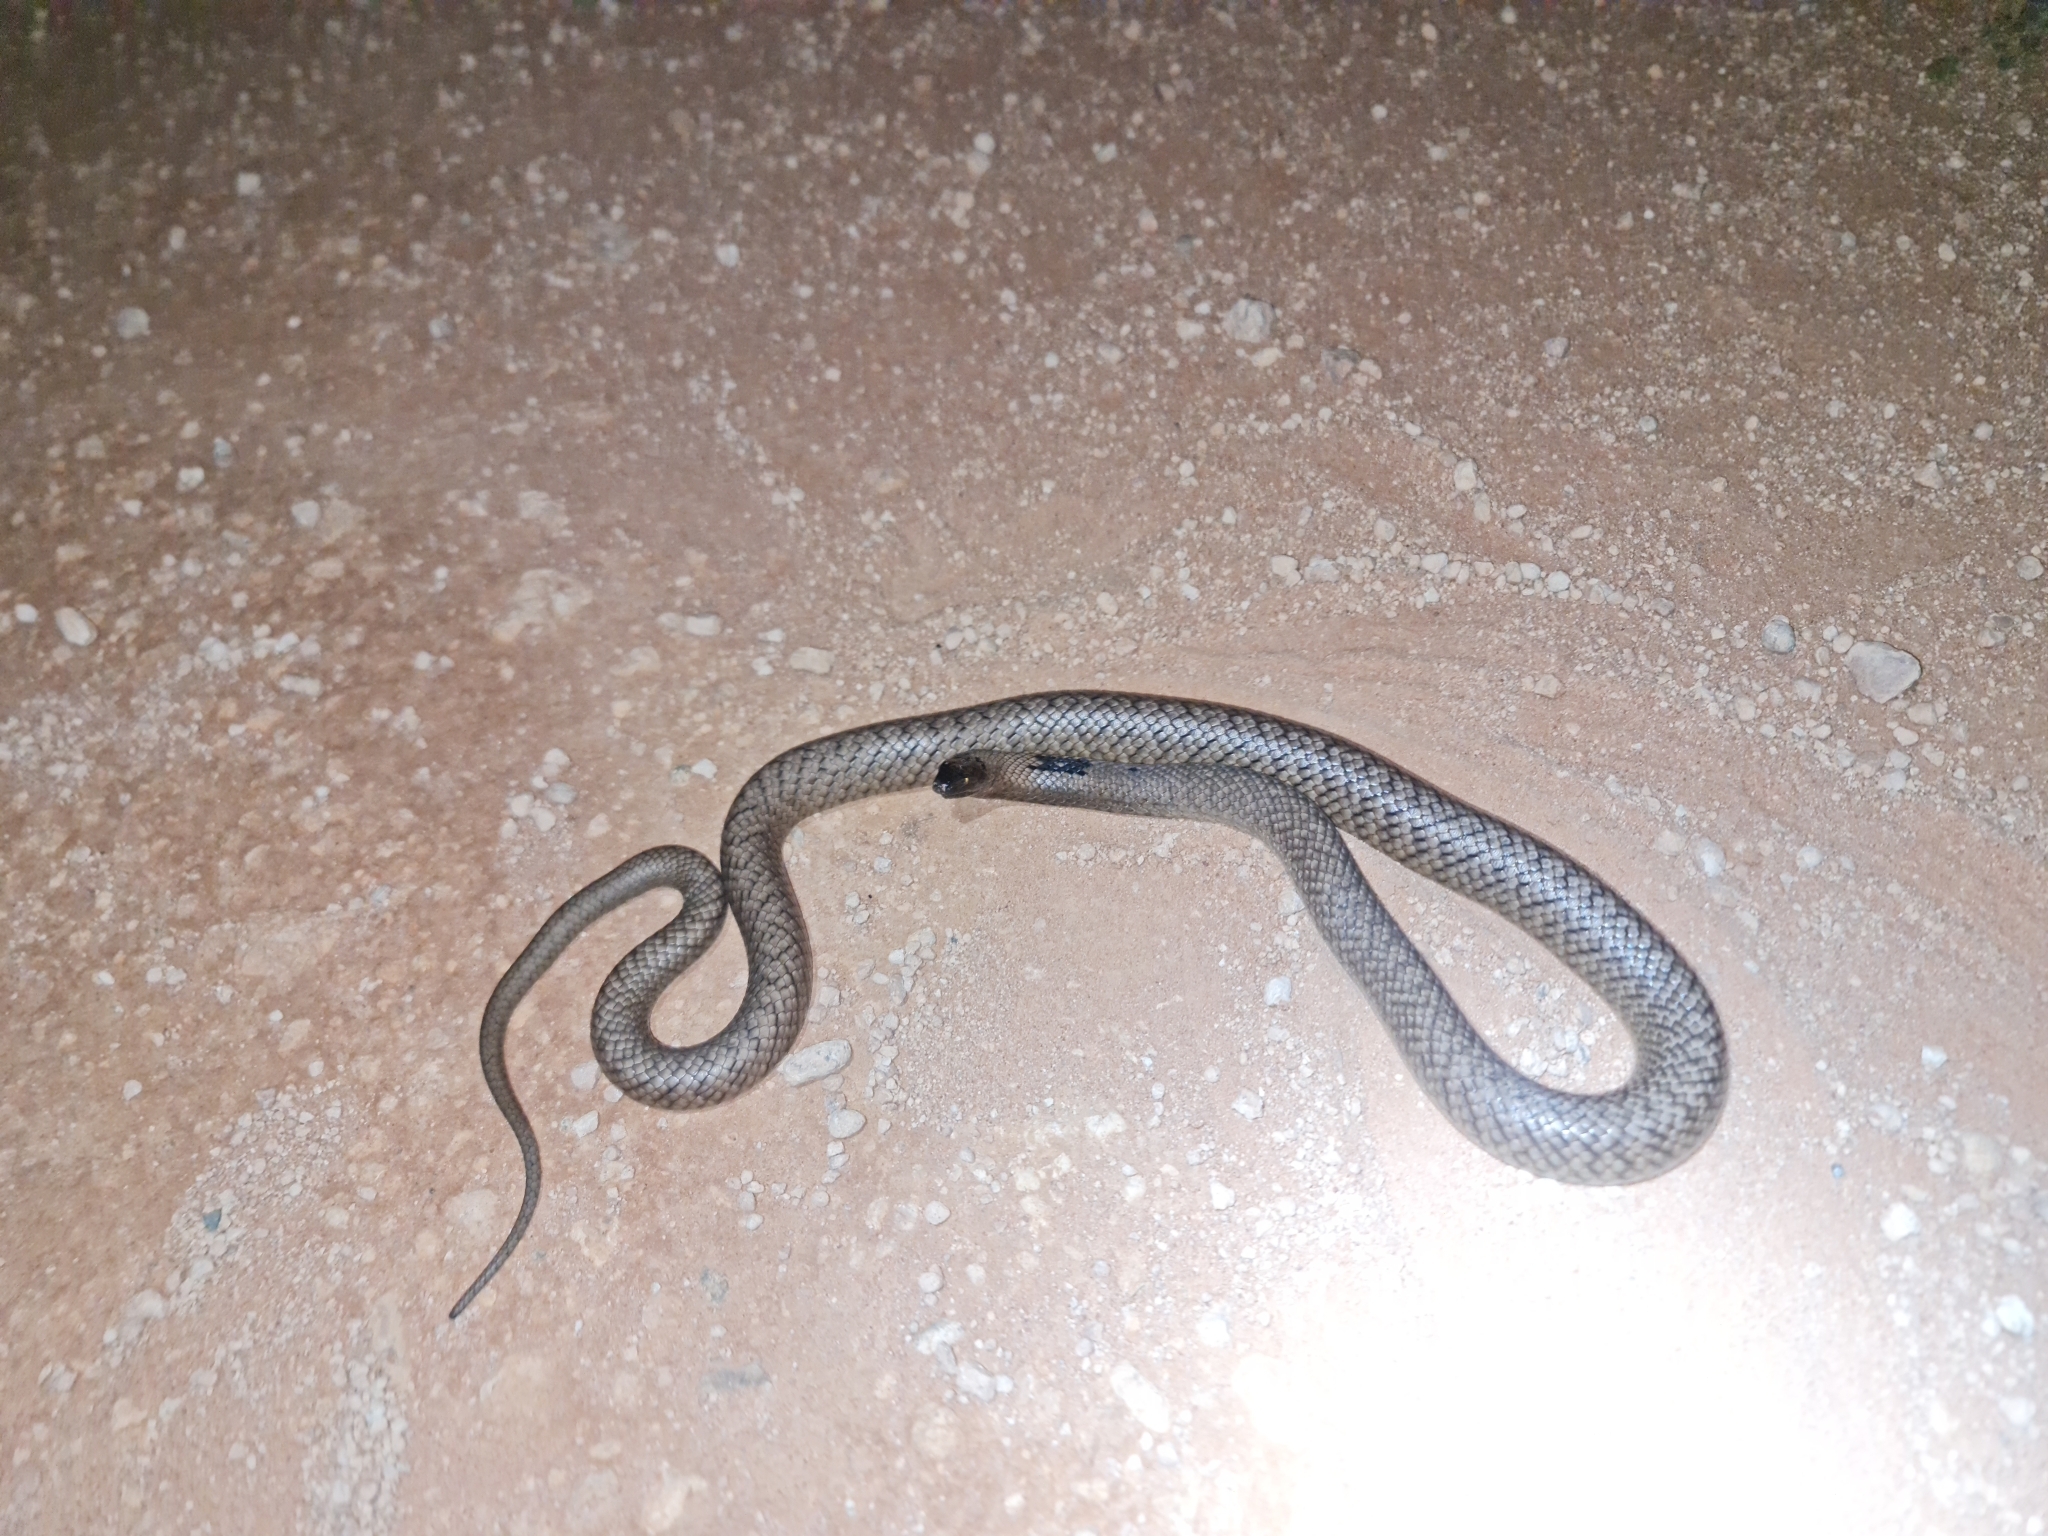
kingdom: Animalia
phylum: Chordata
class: Squamata
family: Elapidae
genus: Pseudonaja
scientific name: Pseudonaja aspidorhyncha
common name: Strap-snouted brown snake
